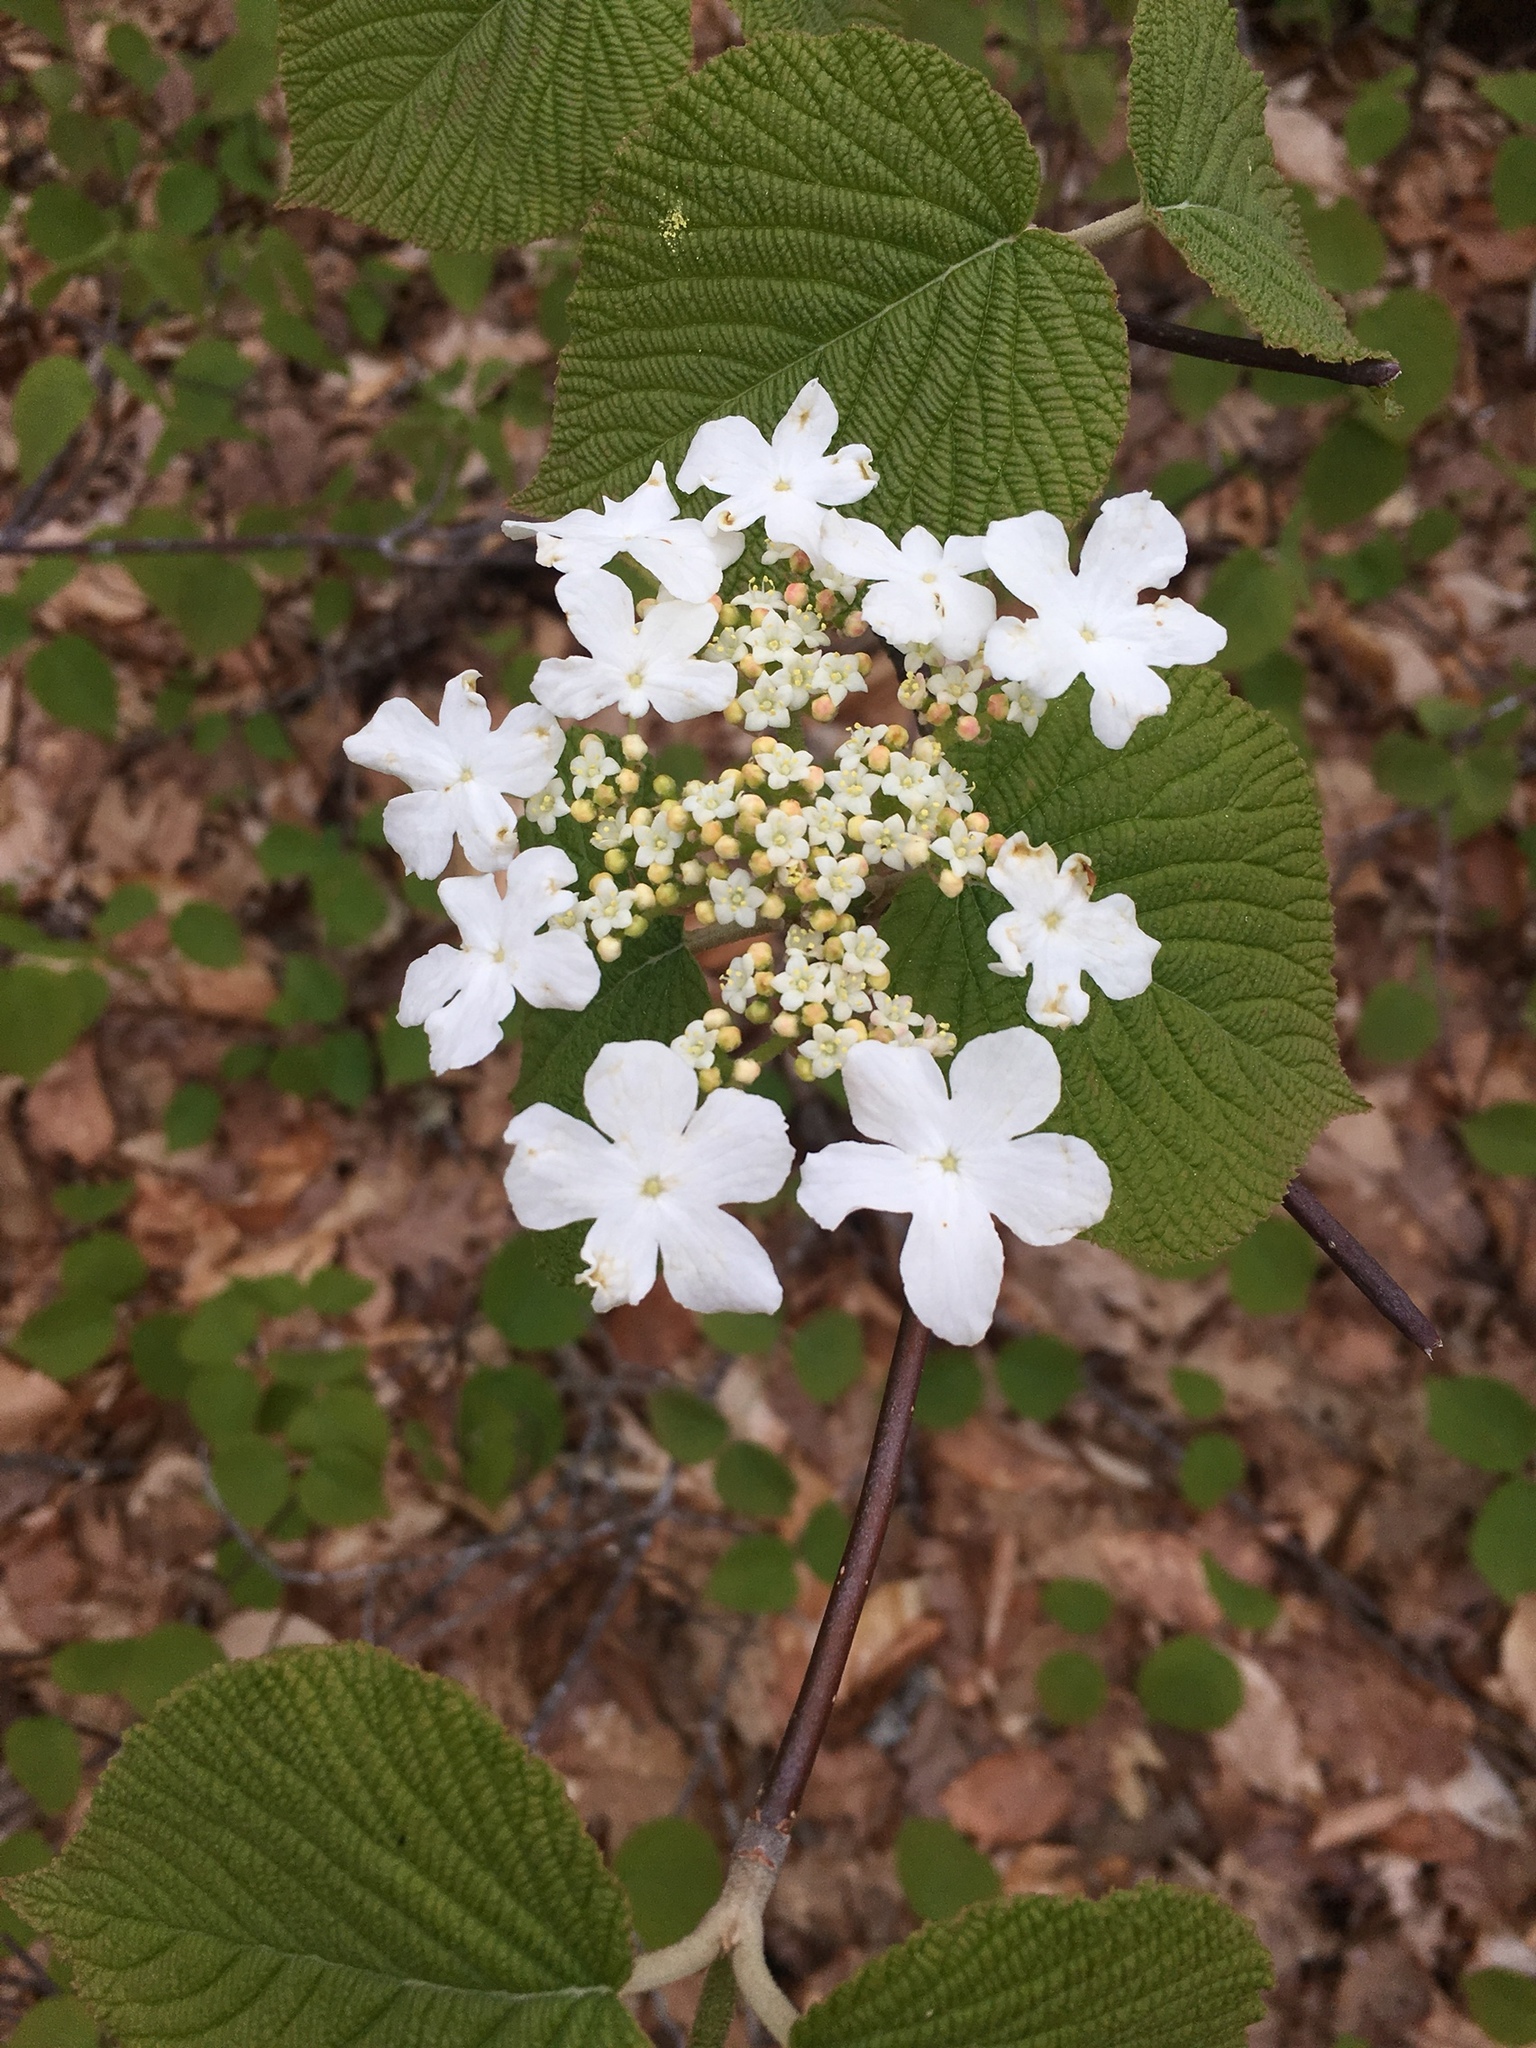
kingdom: Plantae
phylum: Tracheophyta
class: Magnoliopsida
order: Dipsacales
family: Viburnaceae
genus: Viburnum
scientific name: Viburnum lantanoides
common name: Hobblebush
